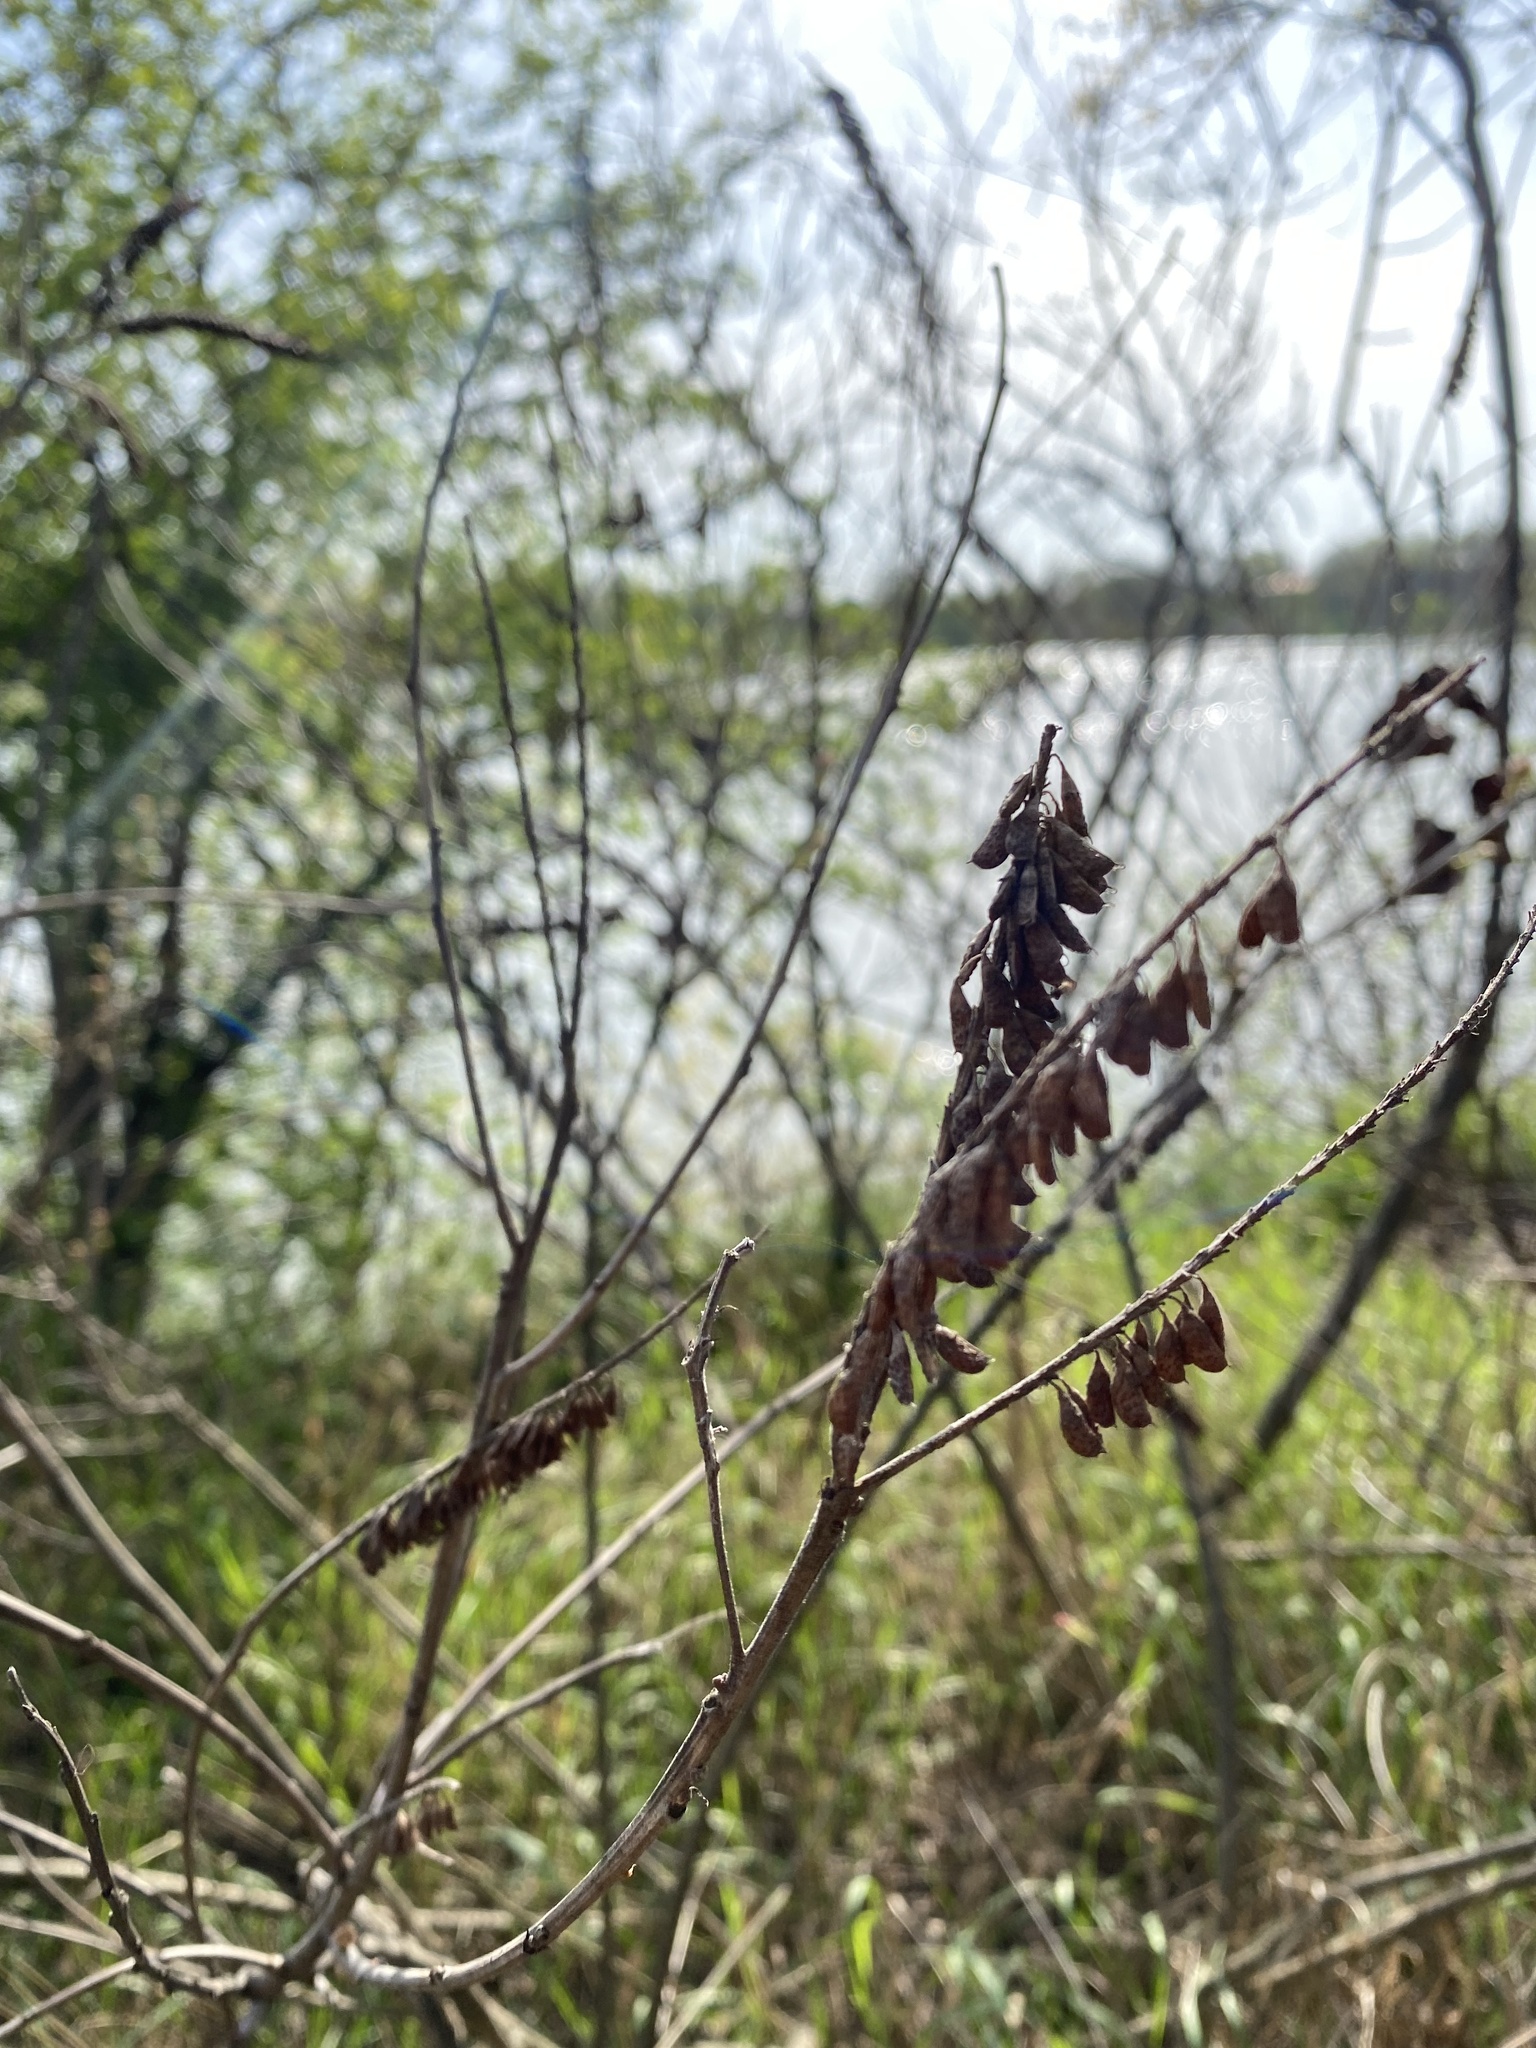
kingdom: Plantae
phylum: Tracheophyta
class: Magnoliopsida
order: Fabales
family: Fabaceae
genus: Amorpha
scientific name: Amorpha fruticosa
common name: False indigo
